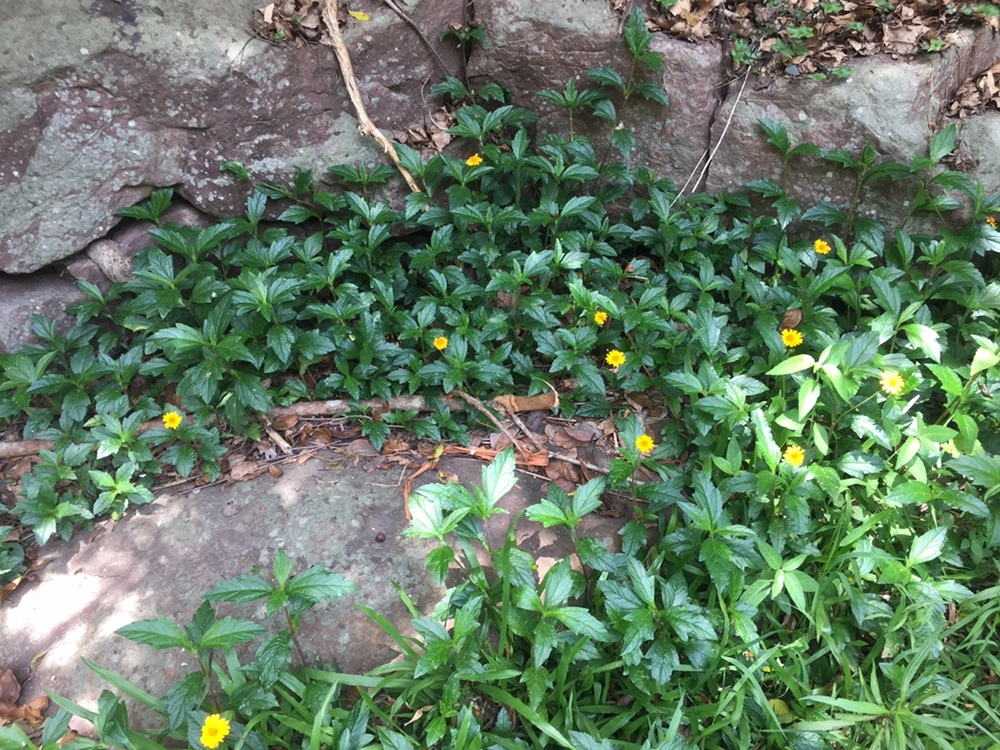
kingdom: Plantae
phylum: Tracheophyta
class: Magnoliopsida
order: Asterales
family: Asteraceae
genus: Sphagneticola
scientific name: Sphagneticola trilobata
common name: Bay biscayne creeping-oxeye
